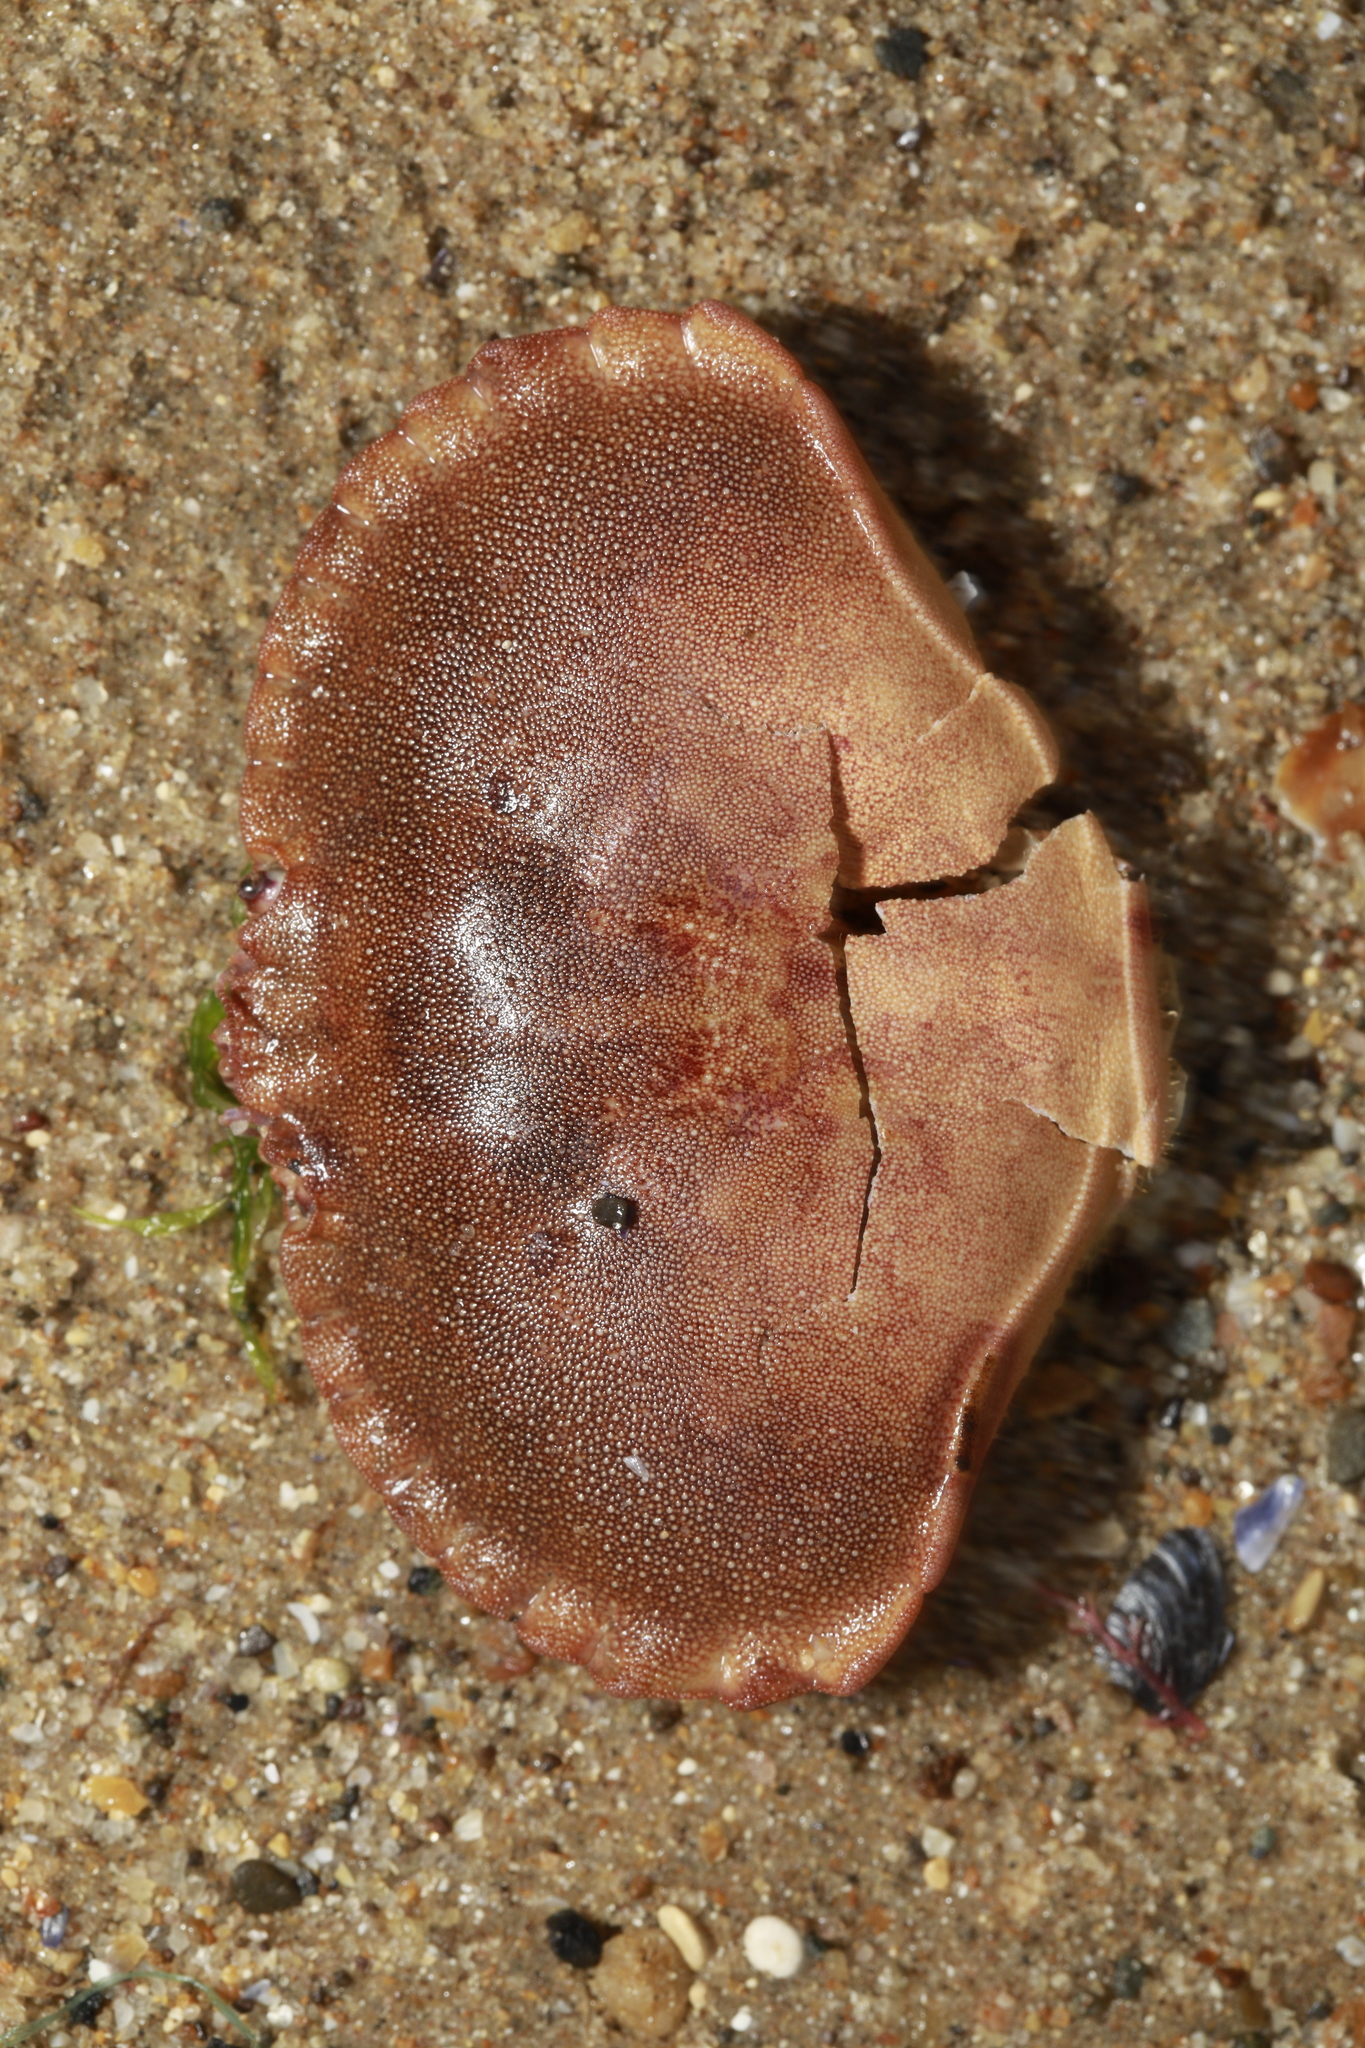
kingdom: Animalia
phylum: Arthropoda
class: Malacostraca
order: Decapoda
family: Cancridae
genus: Cancer
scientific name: Cancer pagurus
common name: Edible crab
